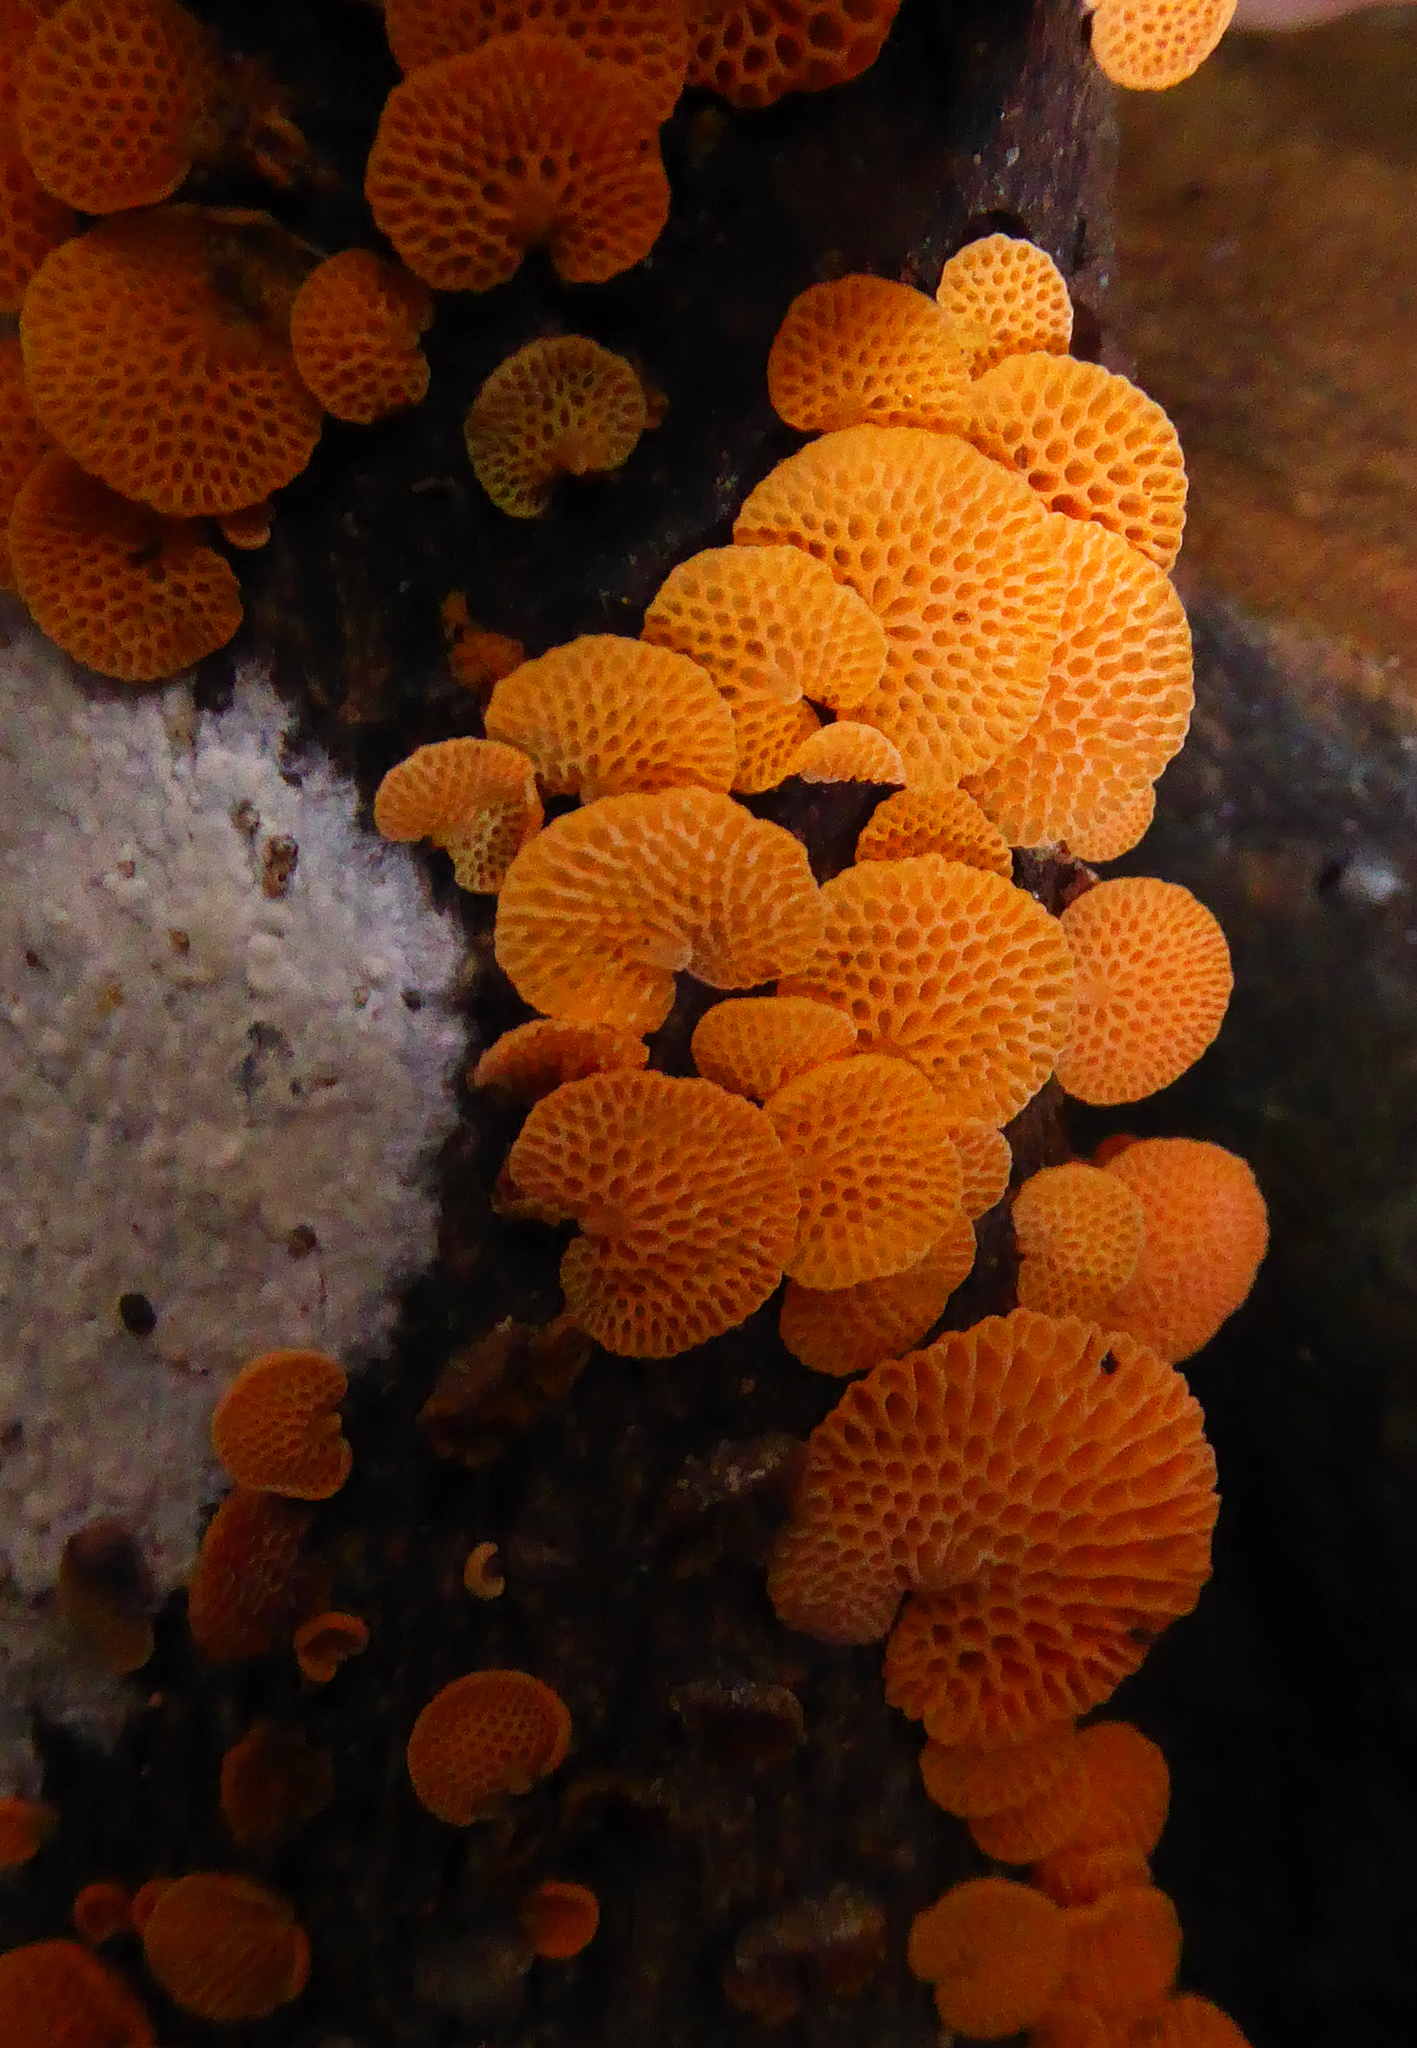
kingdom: Fungi
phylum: Basidiomycota
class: Agaricomycetes
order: Agaricales
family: Mycenaceae
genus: Favolaschia
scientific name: Favolaschia claudopus
